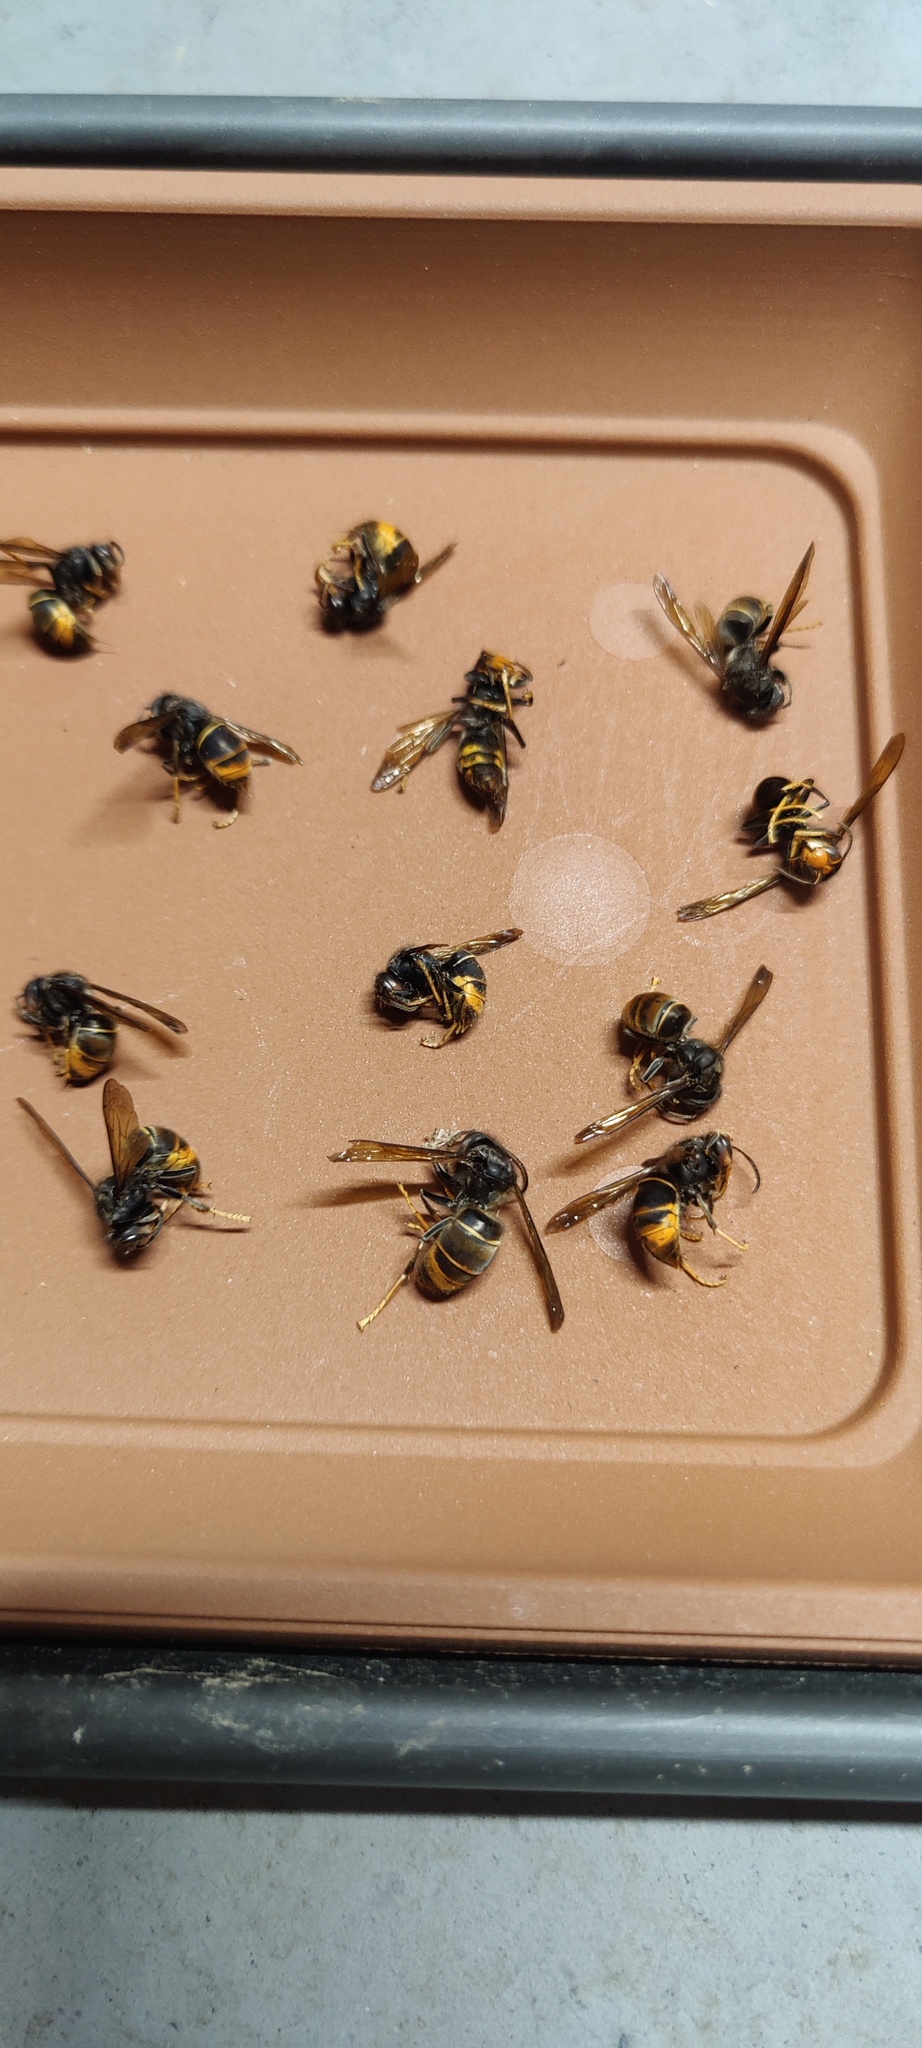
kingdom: Animalia
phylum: Arthropoda
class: Insecta
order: Hymenoptera
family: Vespidae
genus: Vespa
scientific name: Vespa velutina
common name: Asian hornet
